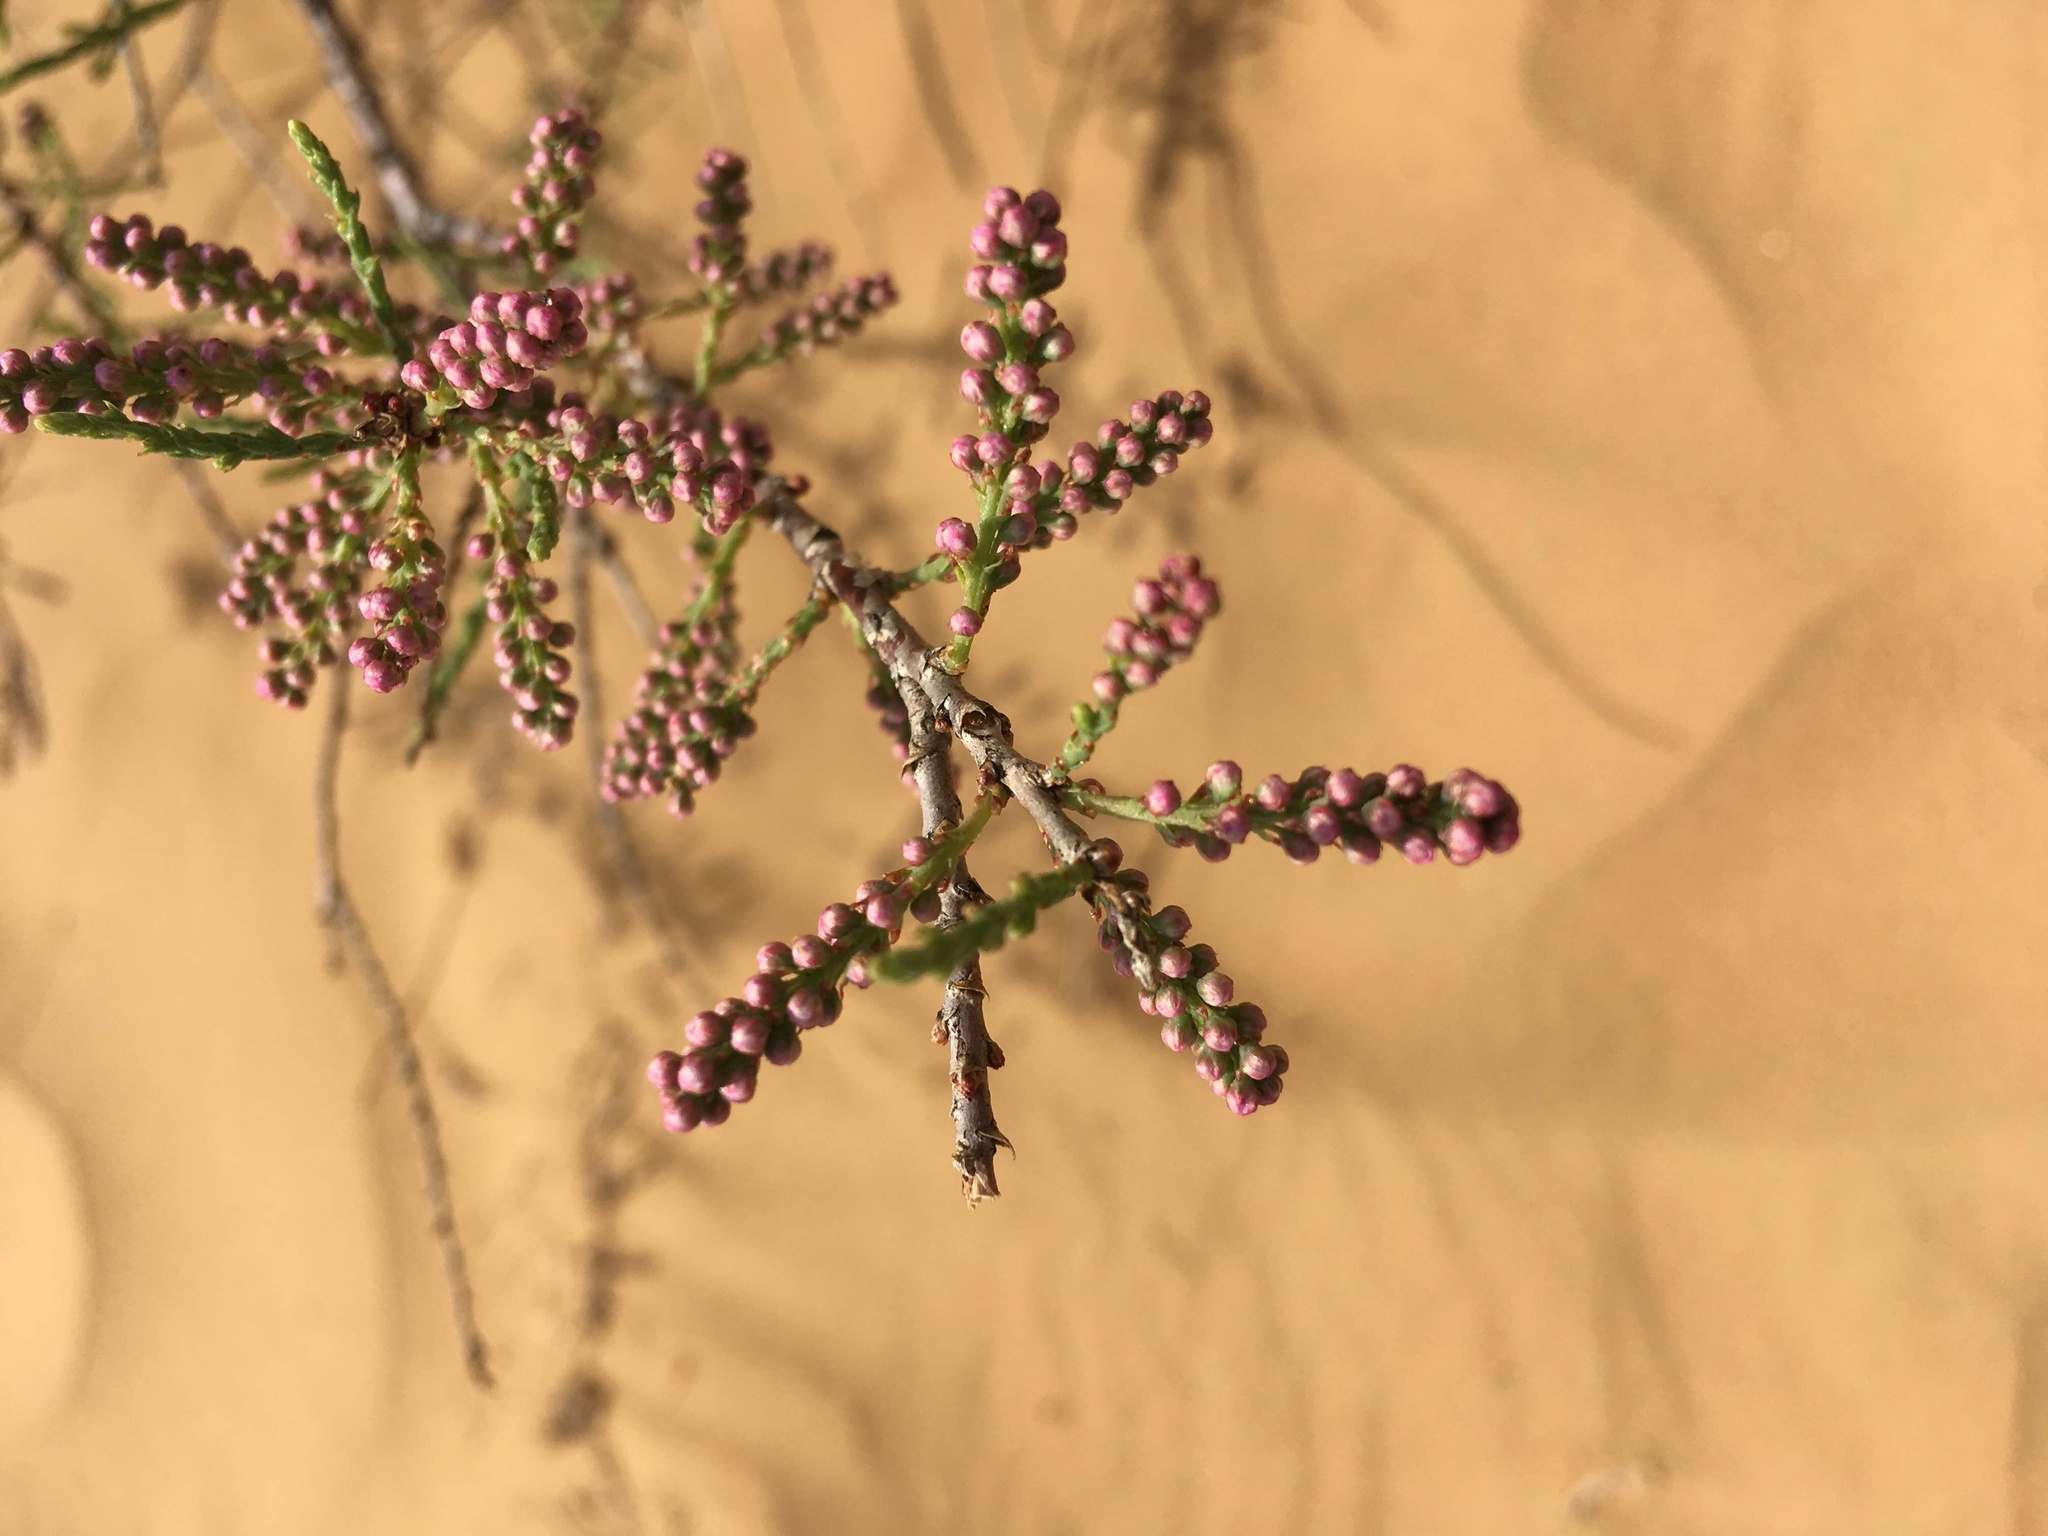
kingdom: Plantae
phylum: Tracheophyta
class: Magnoliopsida
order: Caryophyllales
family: Tamaricaceae
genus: Tamarix
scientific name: Tamarix ramosissima
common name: Pink tamarisk
